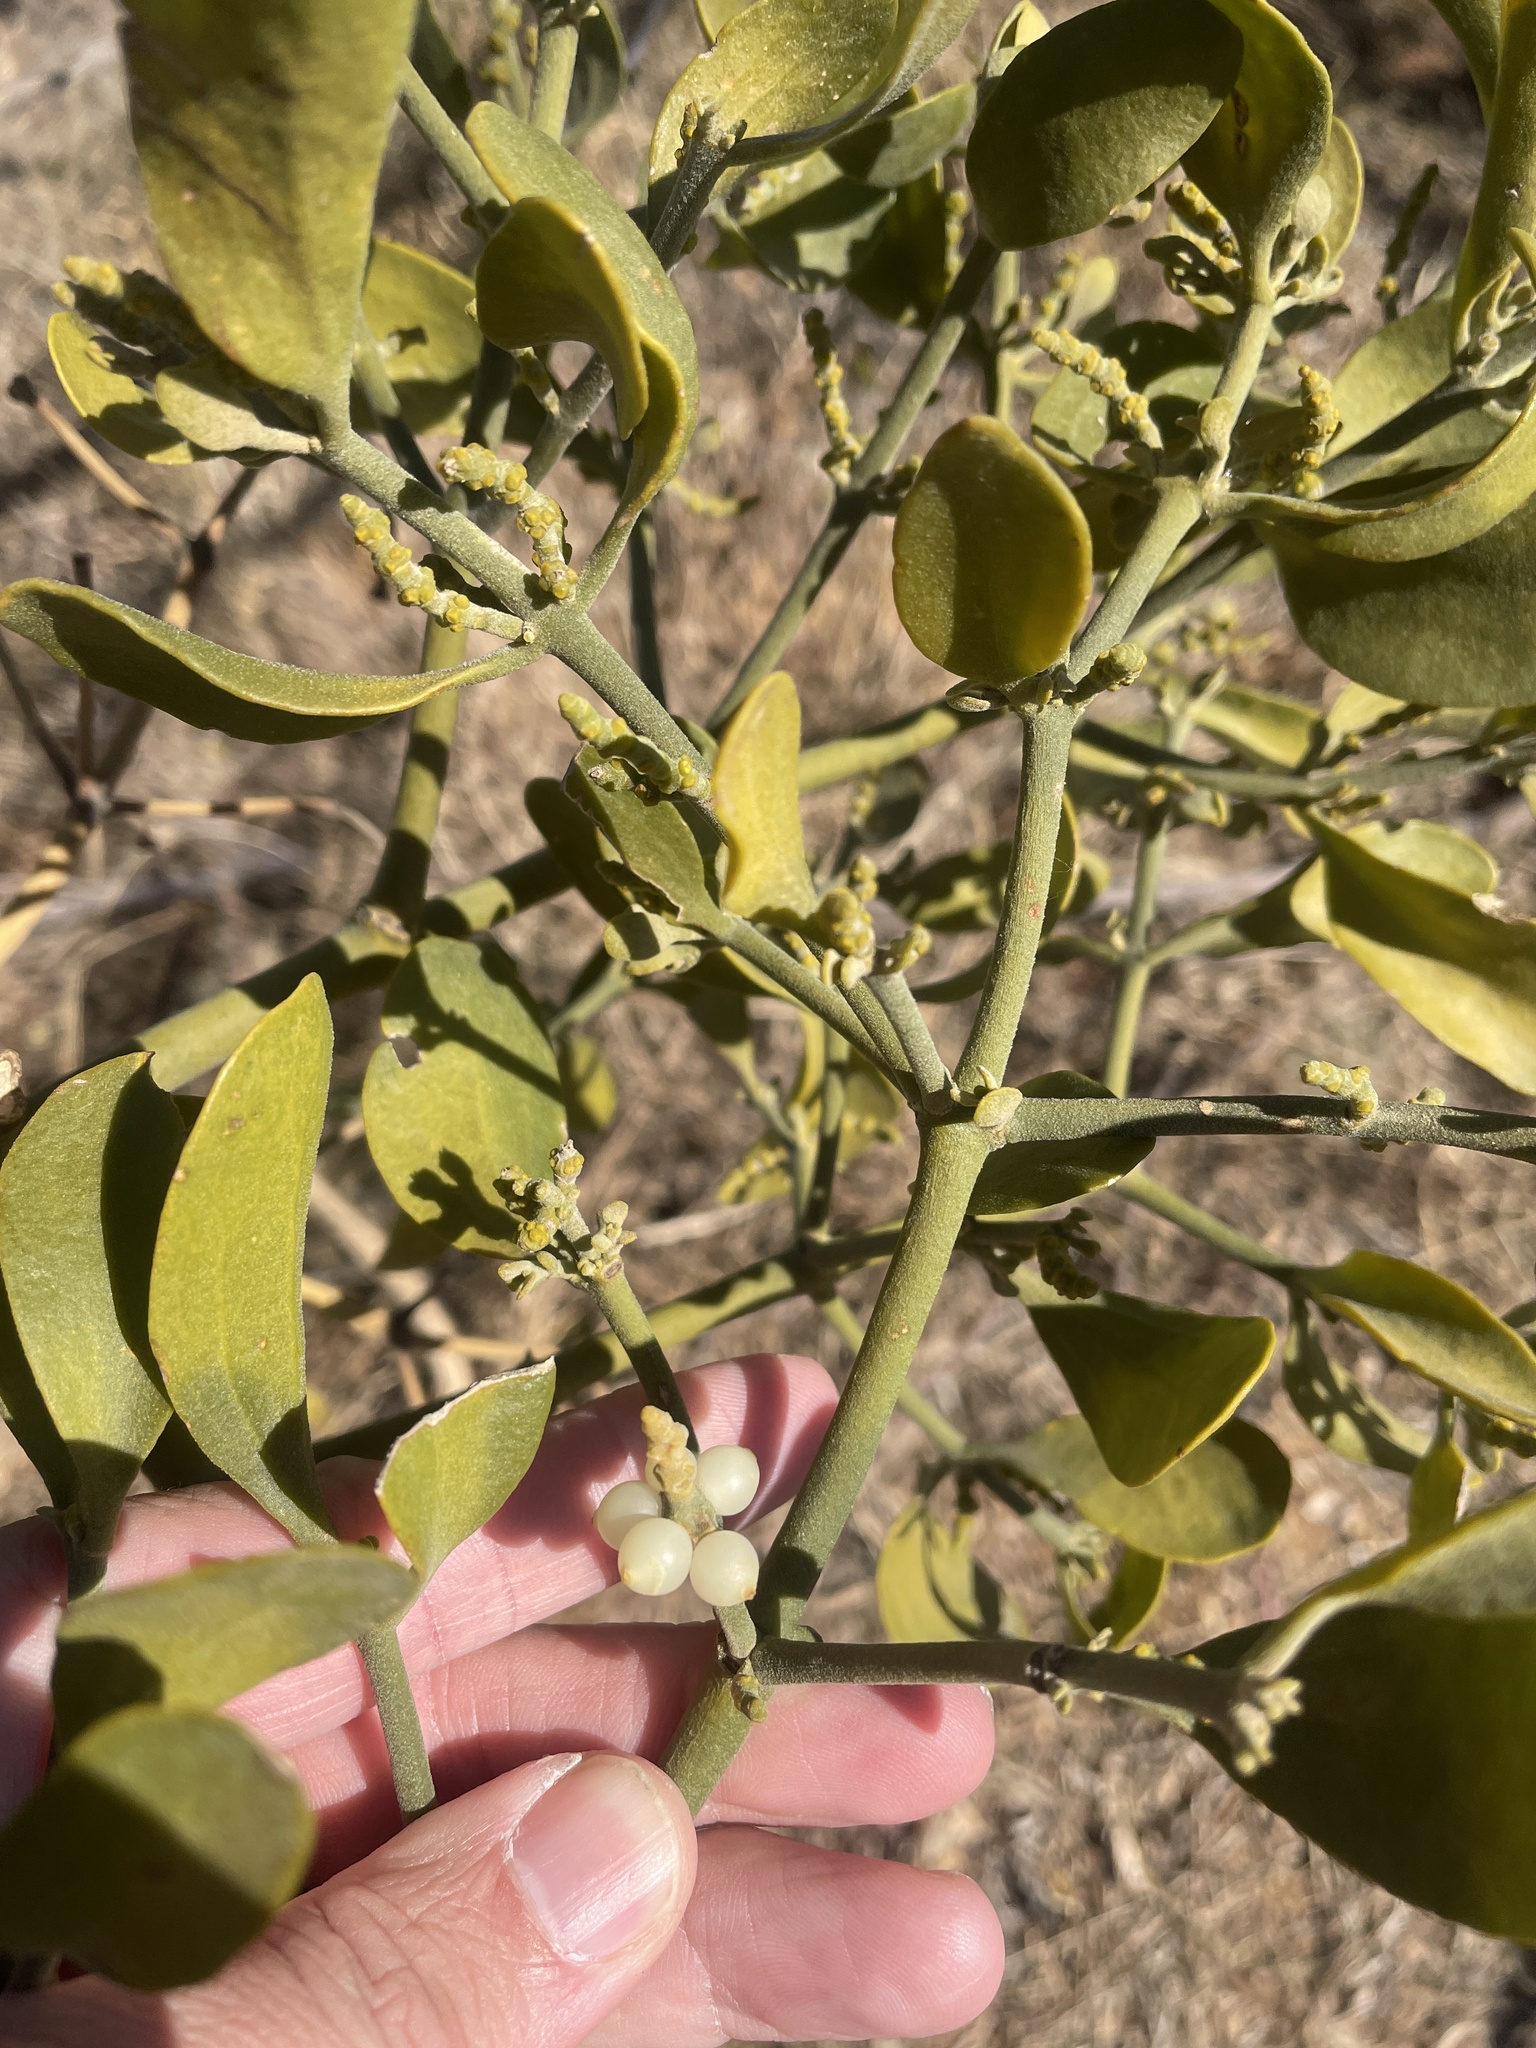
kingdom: Plantae
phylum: Tracheophyta
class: Magnoliopsida
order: Santalales
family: Viscaceae
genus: Phoradendron
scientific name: Phoradendron leucarpum
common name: Pacific mistletoe
